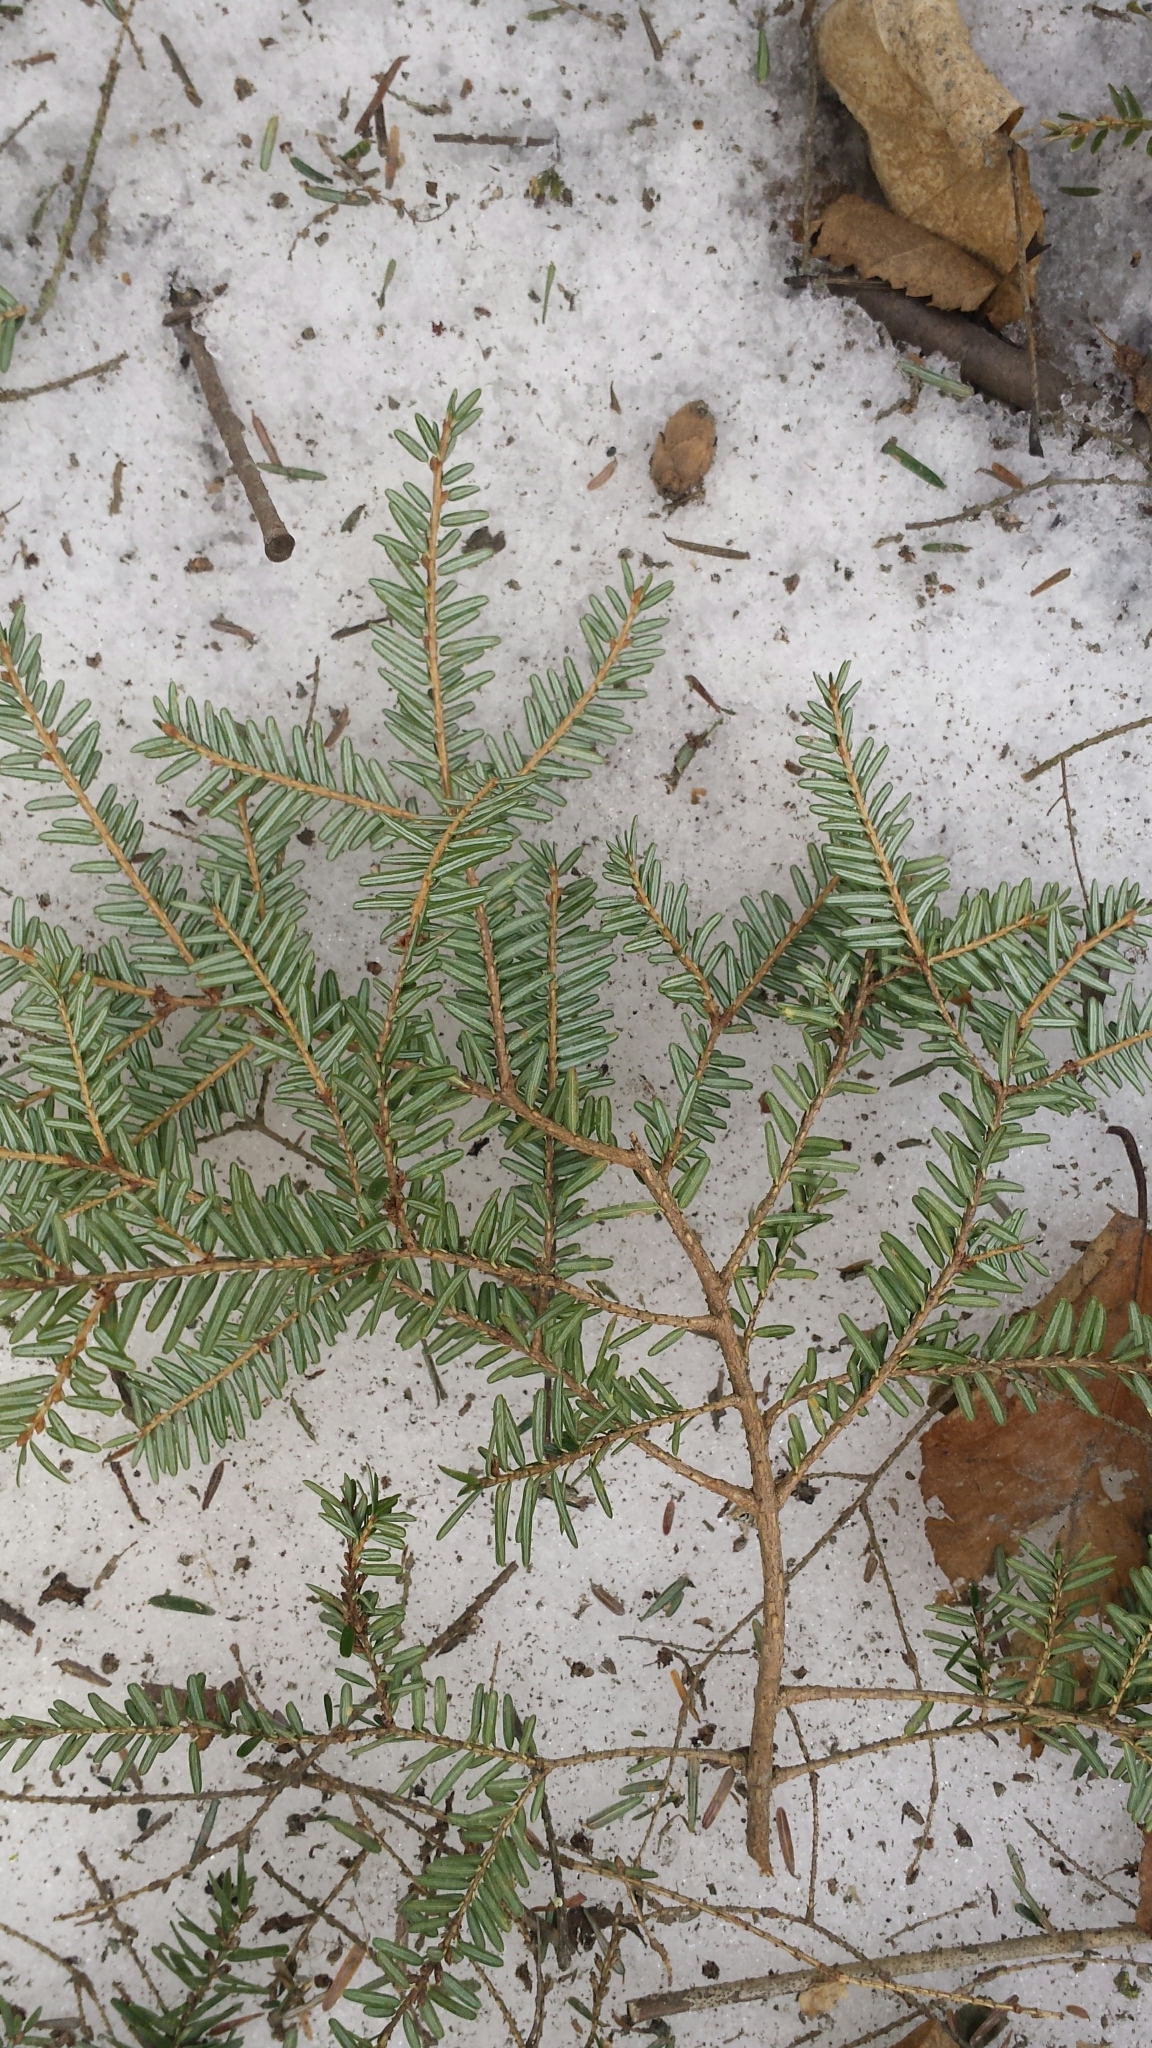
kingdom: Plantae
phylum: Tracheophyta
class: Pinopsida
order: Pinales
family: Pinaceae
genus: Tsuga
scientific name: Tsuga canadensis
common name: Eastern hemlock
